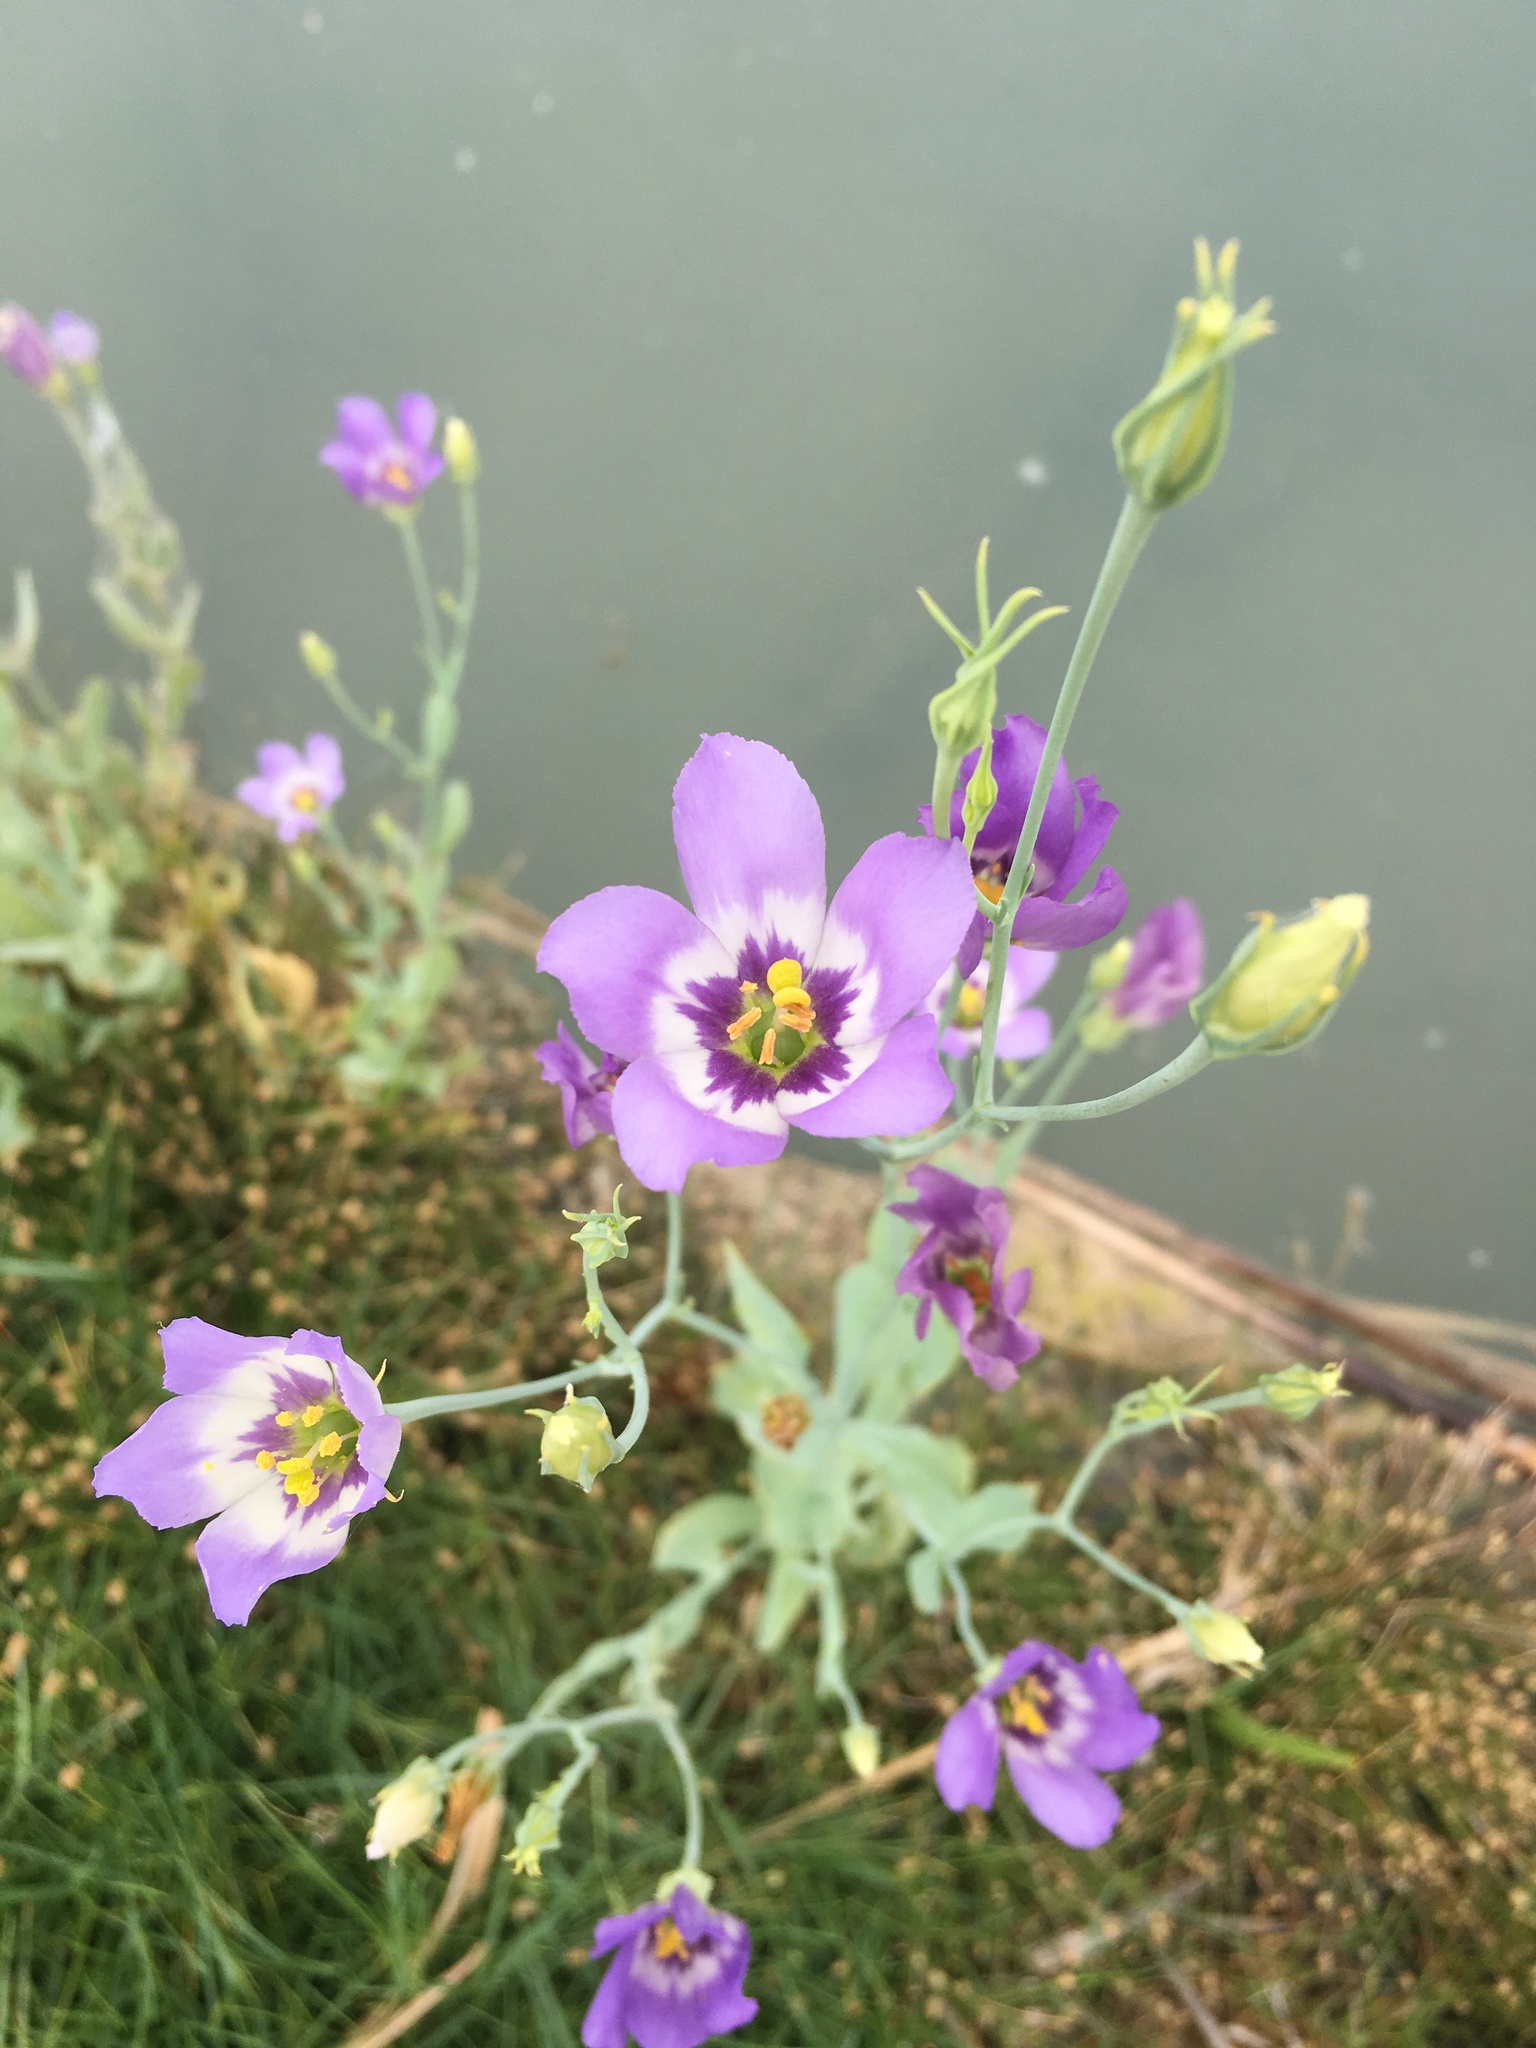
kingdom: Plantae
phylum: Tracheophyta
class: Magnoliopsida
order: Gentianales
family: Gentianaceae
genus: Eustoma
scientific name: Eustoma exaltatum
